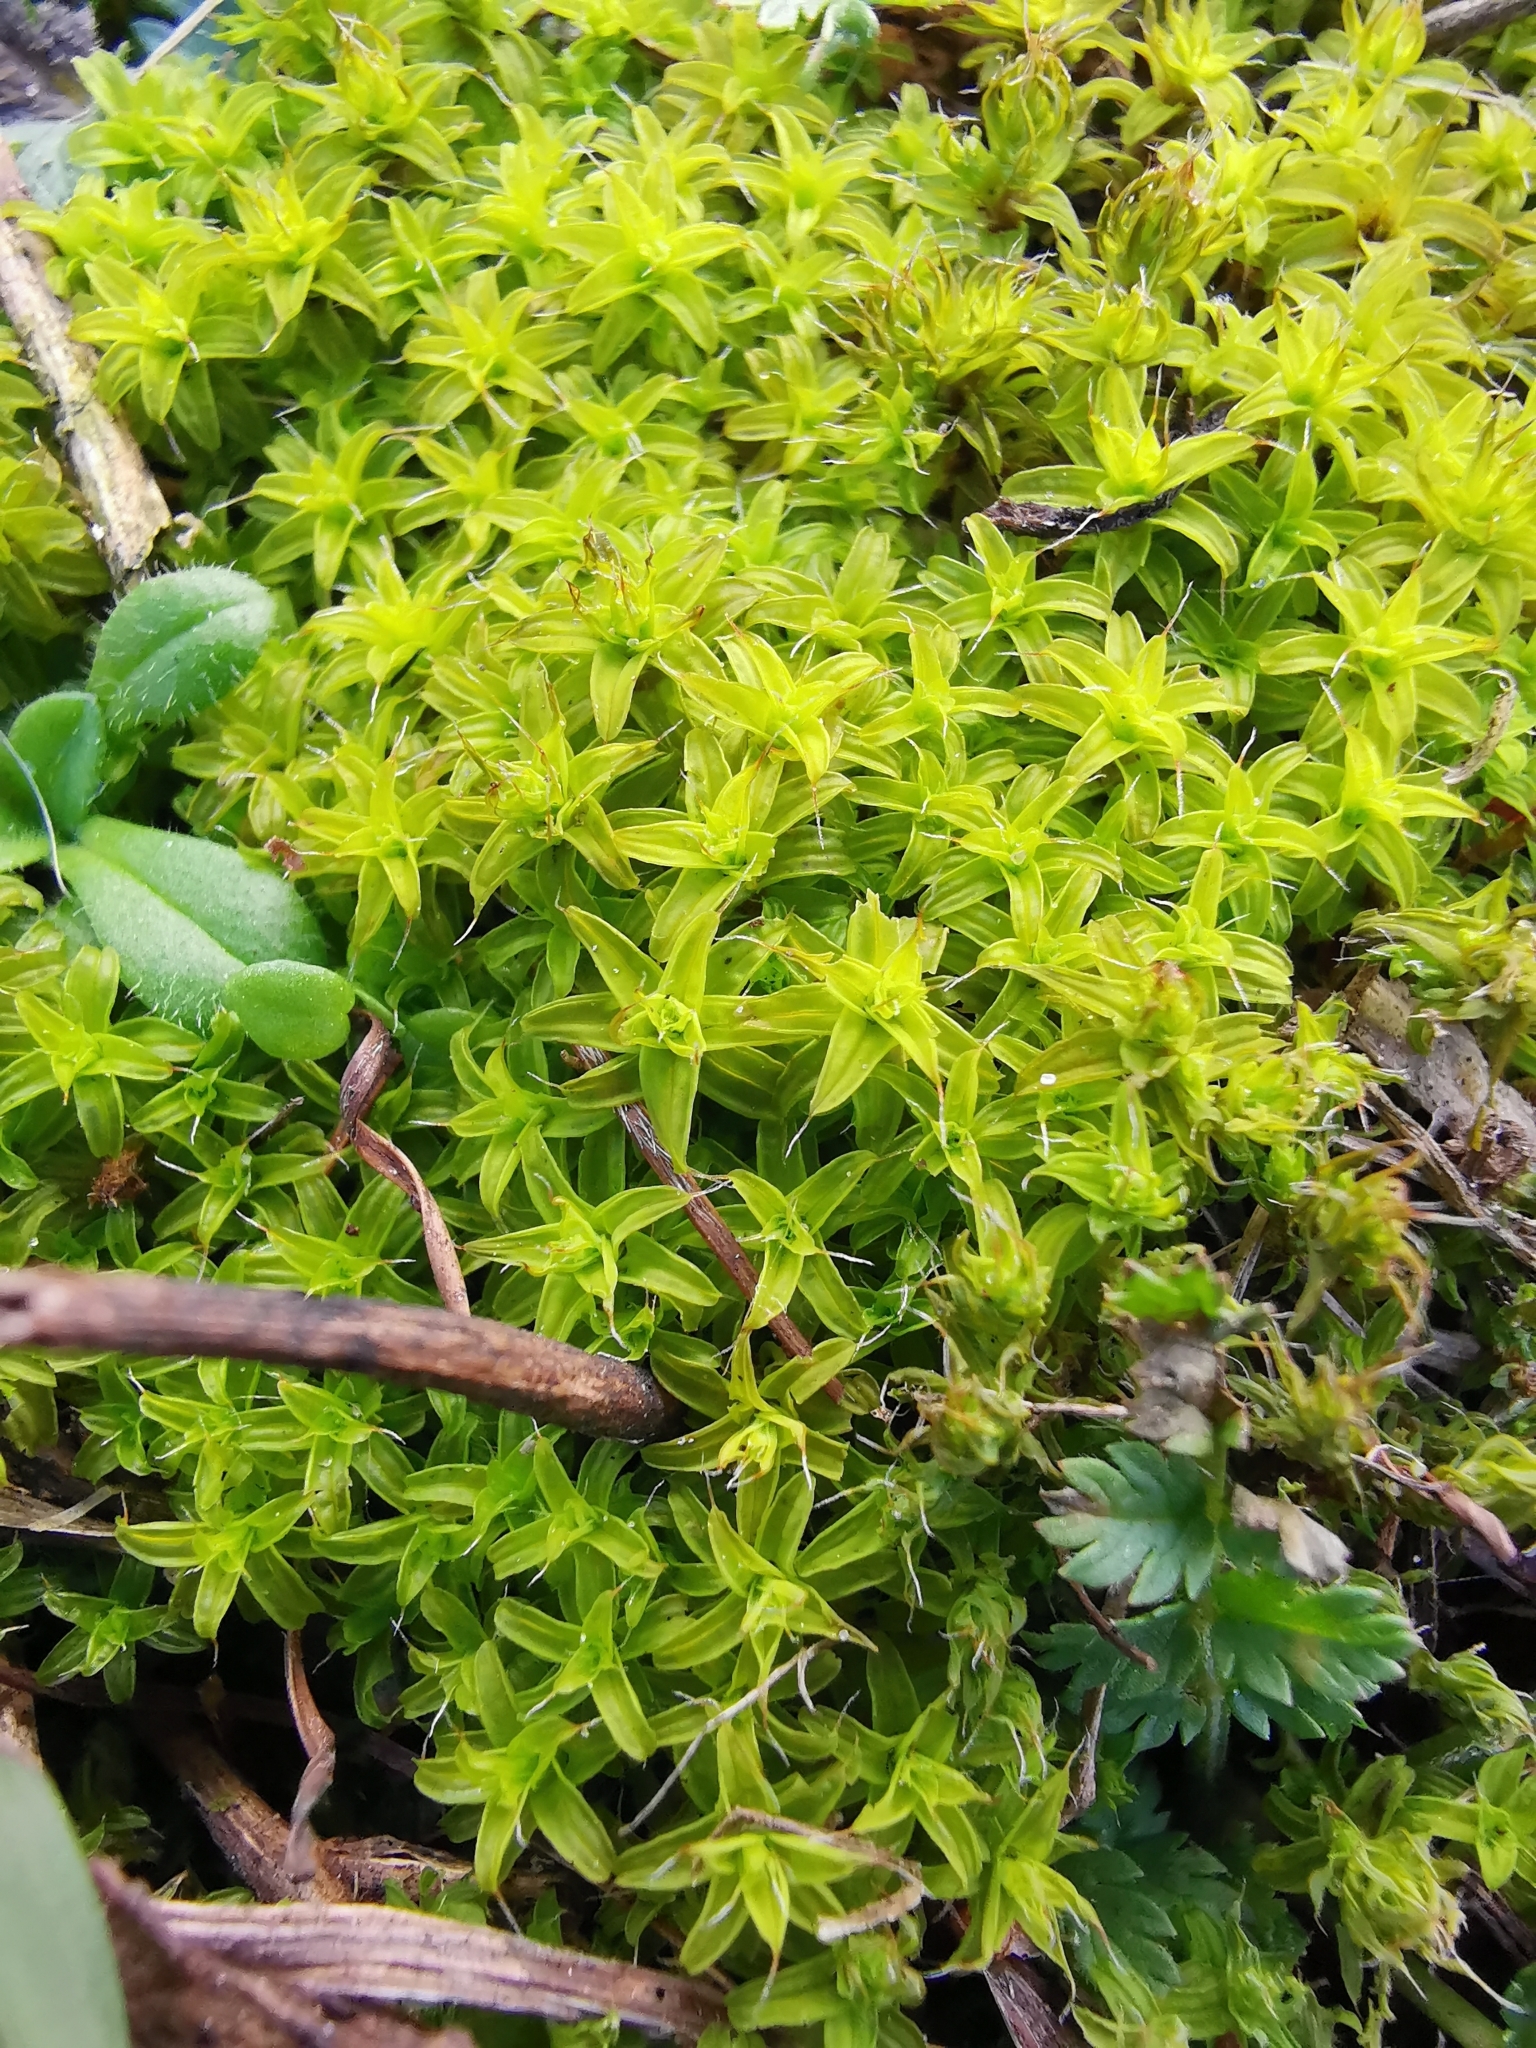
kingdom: Plantae
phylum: Bryophyta
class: Bryopsida
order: Pottiales
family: Pottiaceae
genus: Syntrichia
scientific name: Syntrichia ruralis
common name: Sidewalk screw moss
